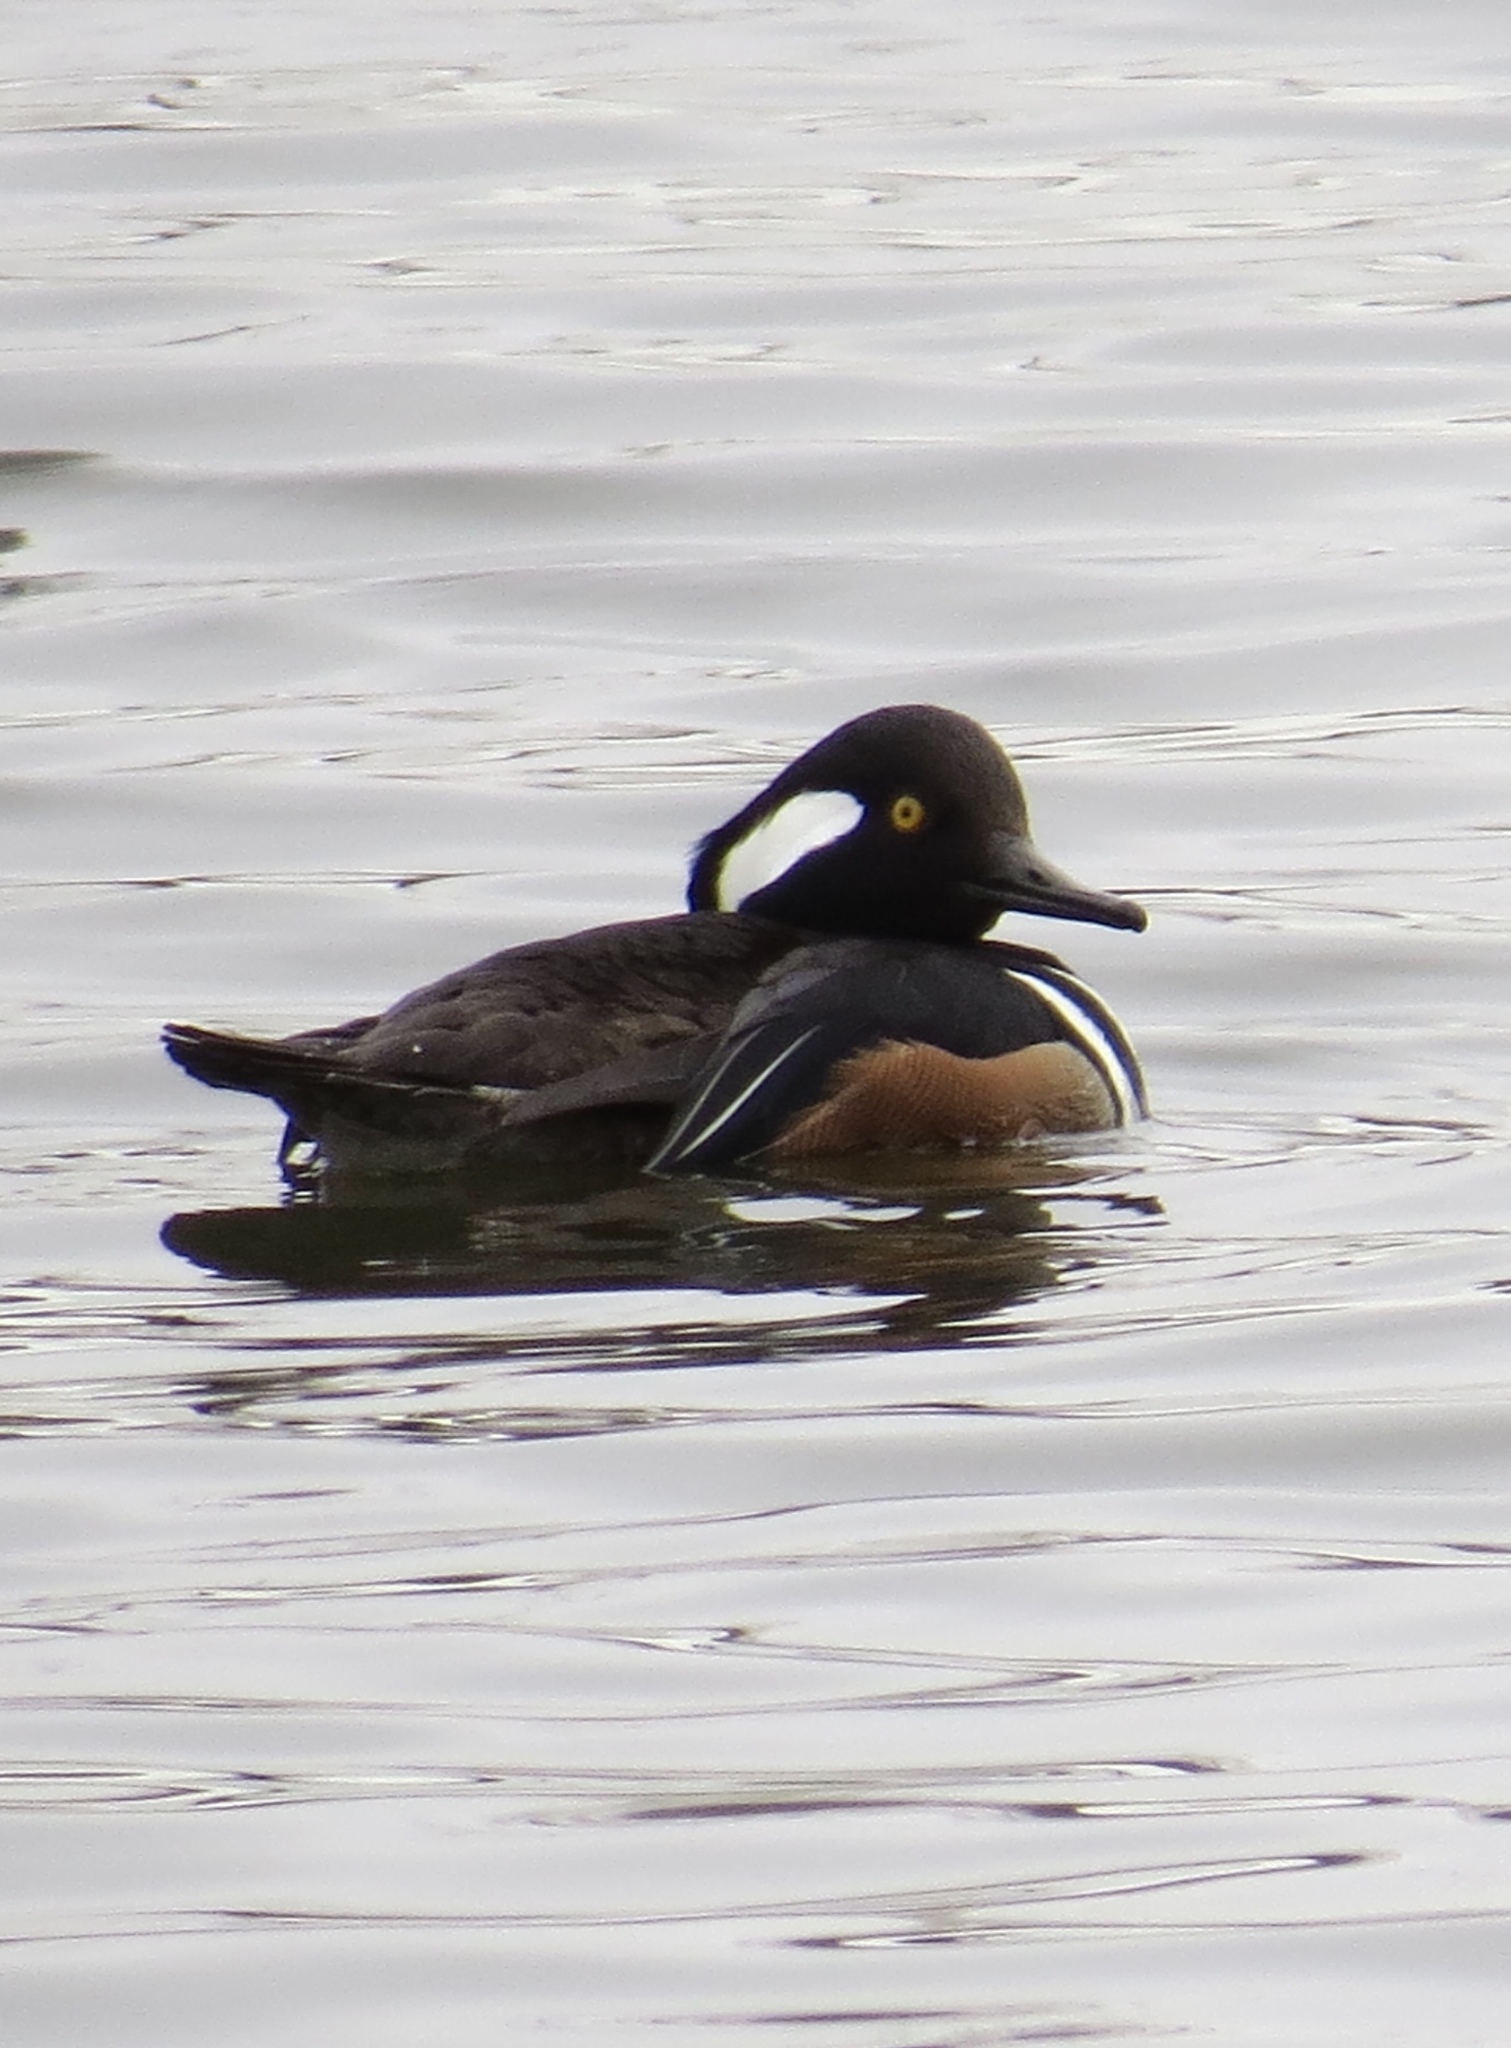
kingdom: Animalia
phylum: Chordata
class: Aves
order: Anseriformes
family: Anatidae
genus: Lophodytes
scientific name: Lophodytes cucullatus
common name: Hooded merganser
